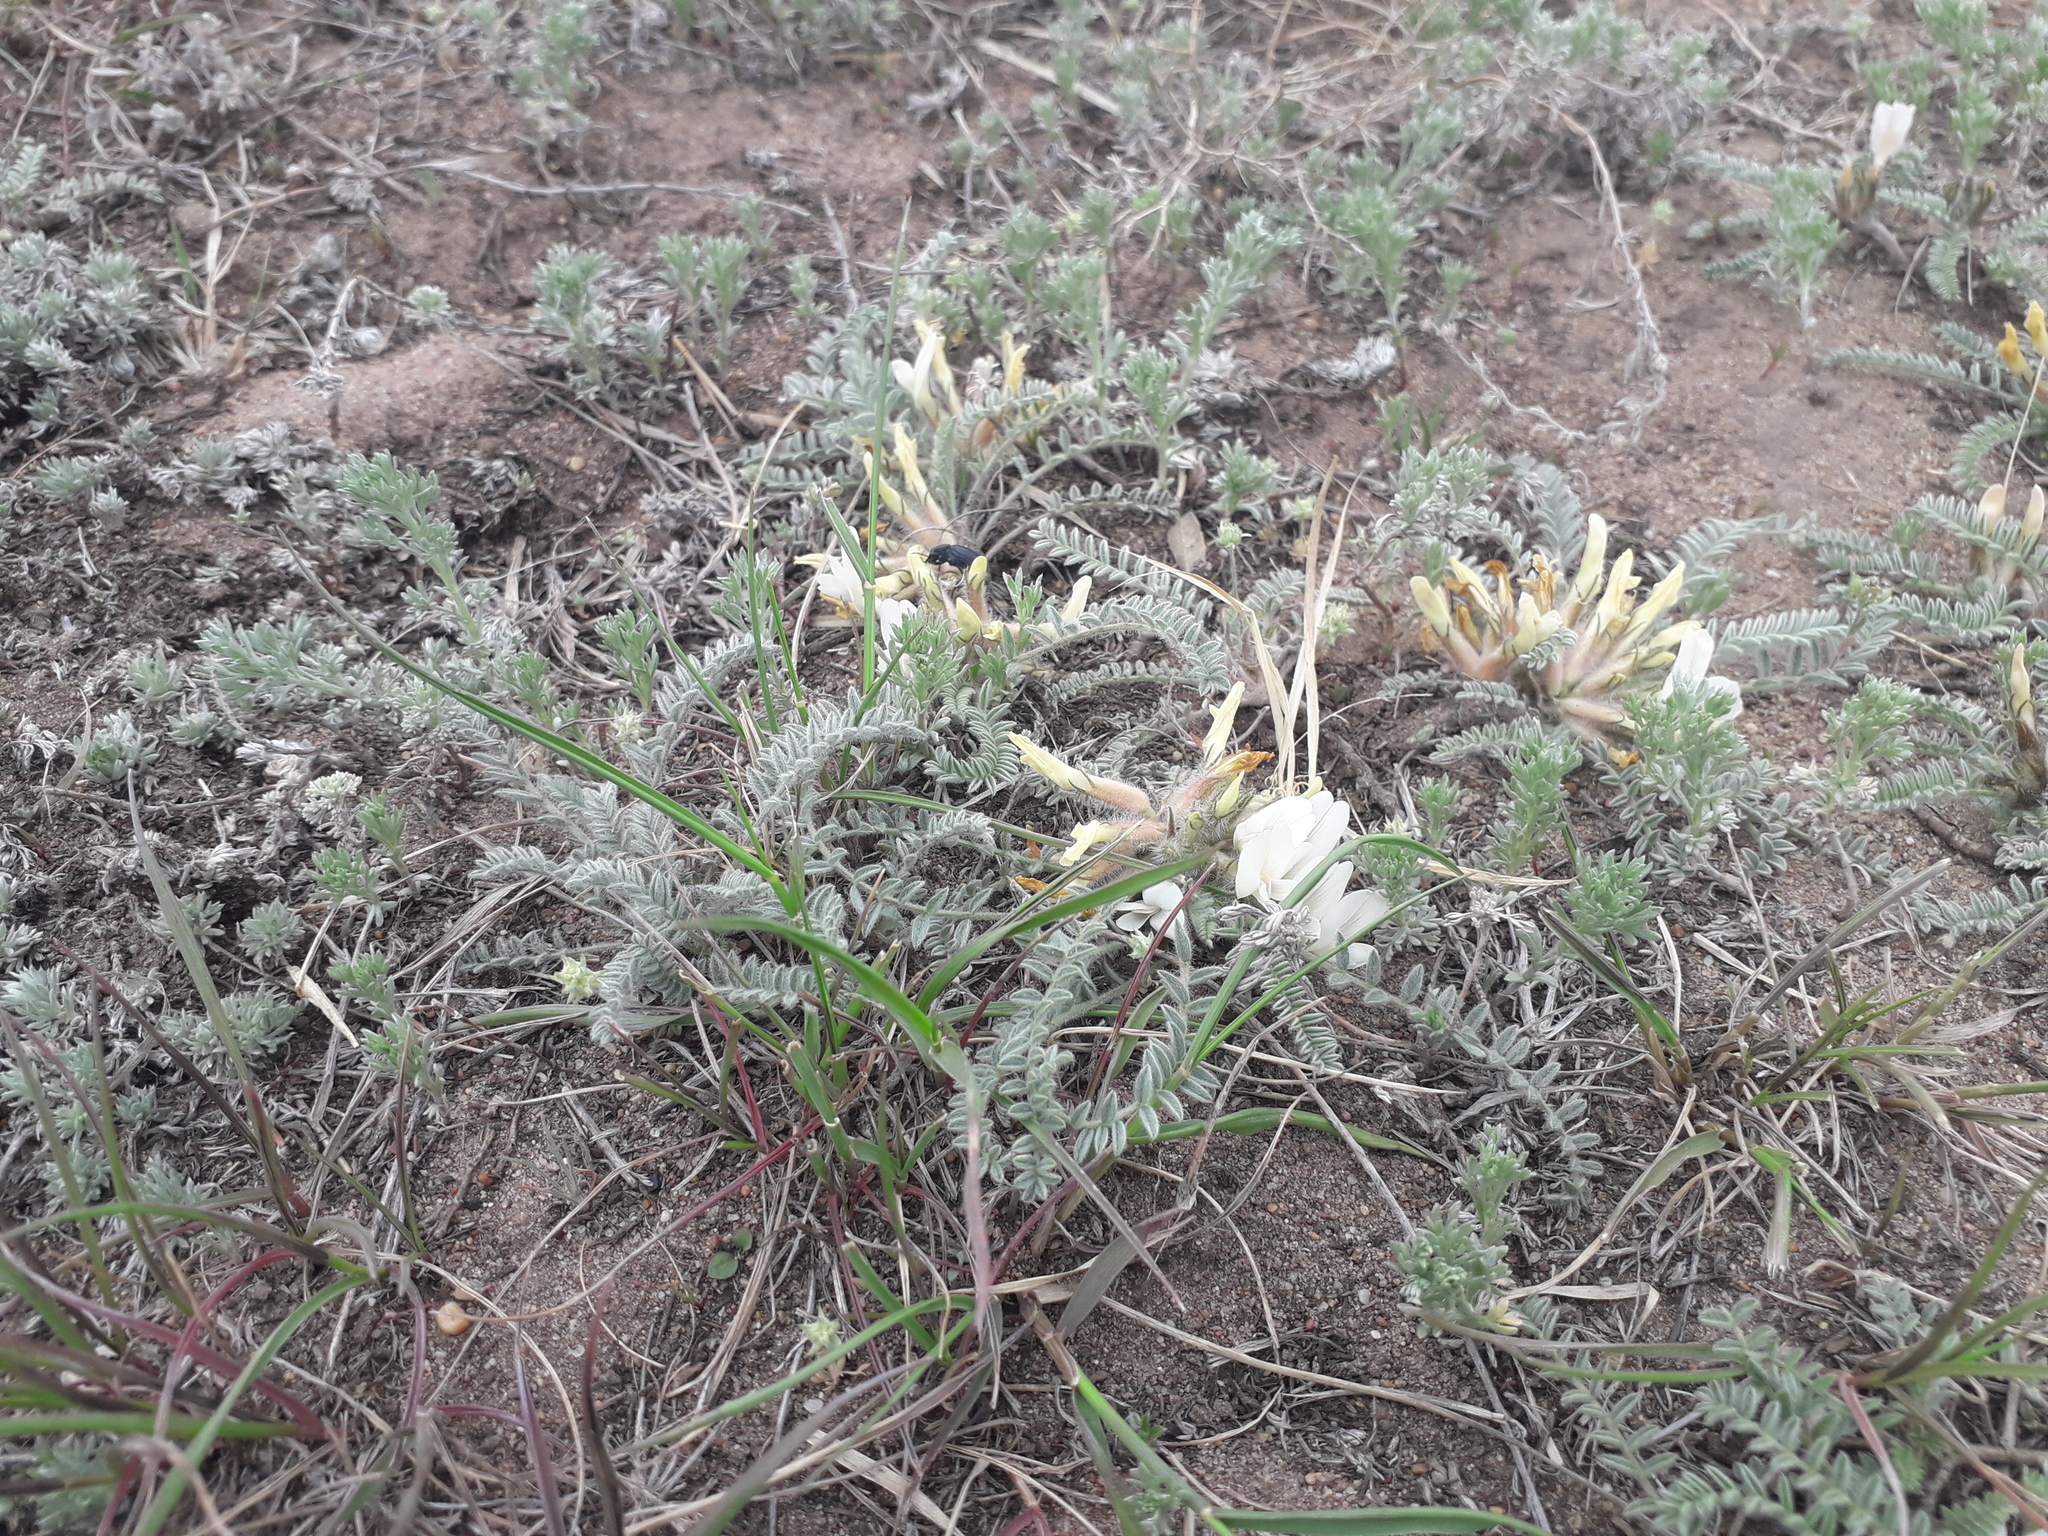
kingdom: Plantae
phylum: Tracheophyta
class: Magnoliopsida
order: Fabales
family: Fabaceae
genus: Astragalus
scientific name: Astragalus testiculatus
